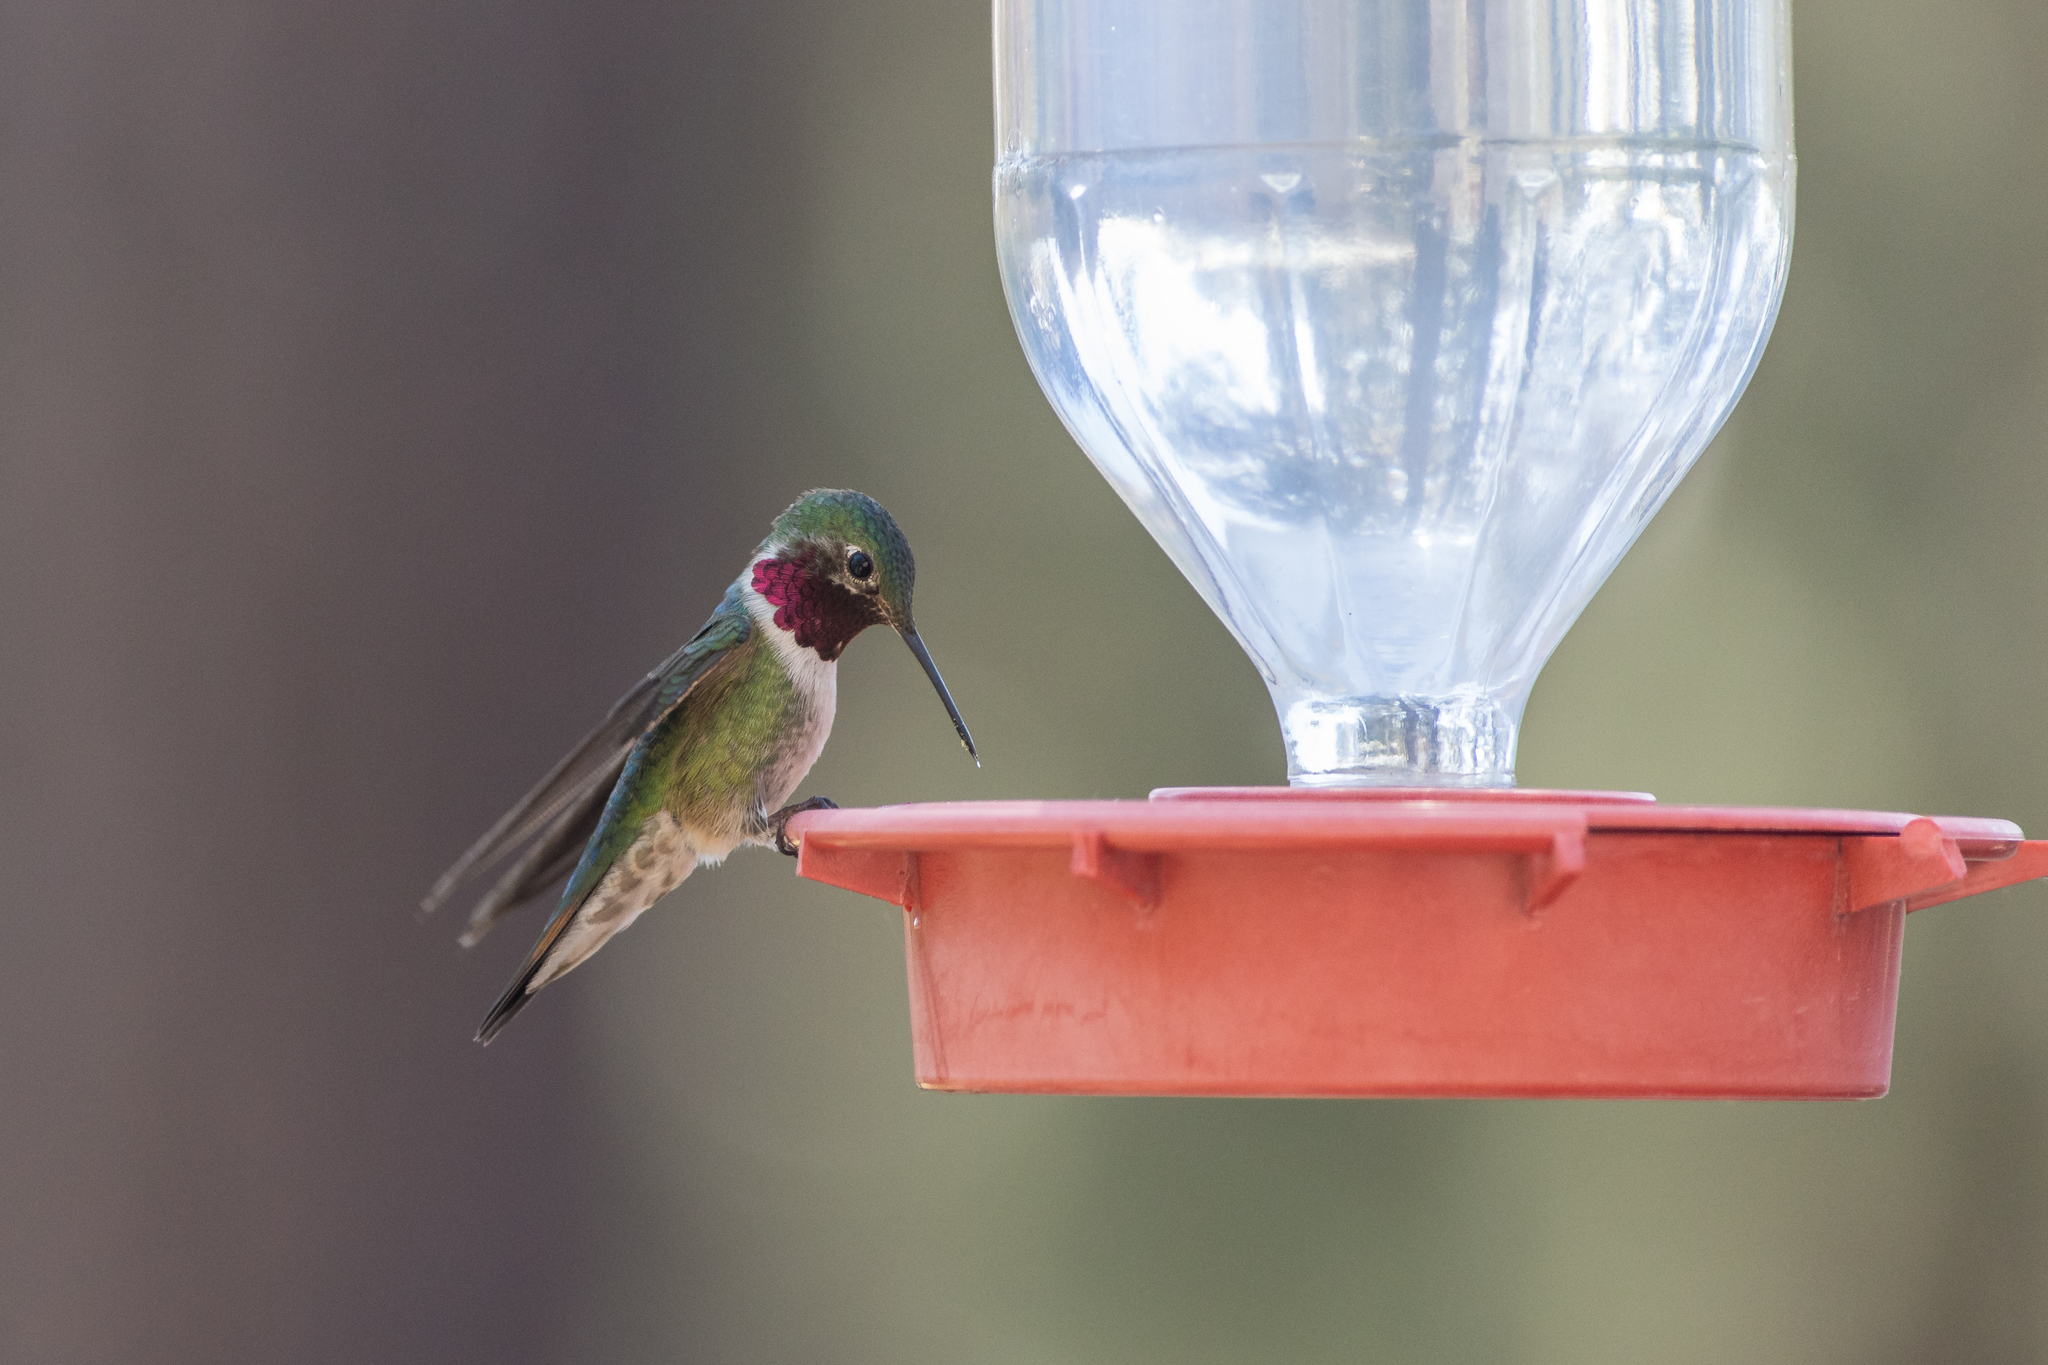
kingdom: Animalia
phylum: Chordata
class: Aves
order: Apodiformes
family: Trochilidae
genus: Selasphorus
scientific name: Selasphorus platycercus
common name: Broad-tailed hummingbird
